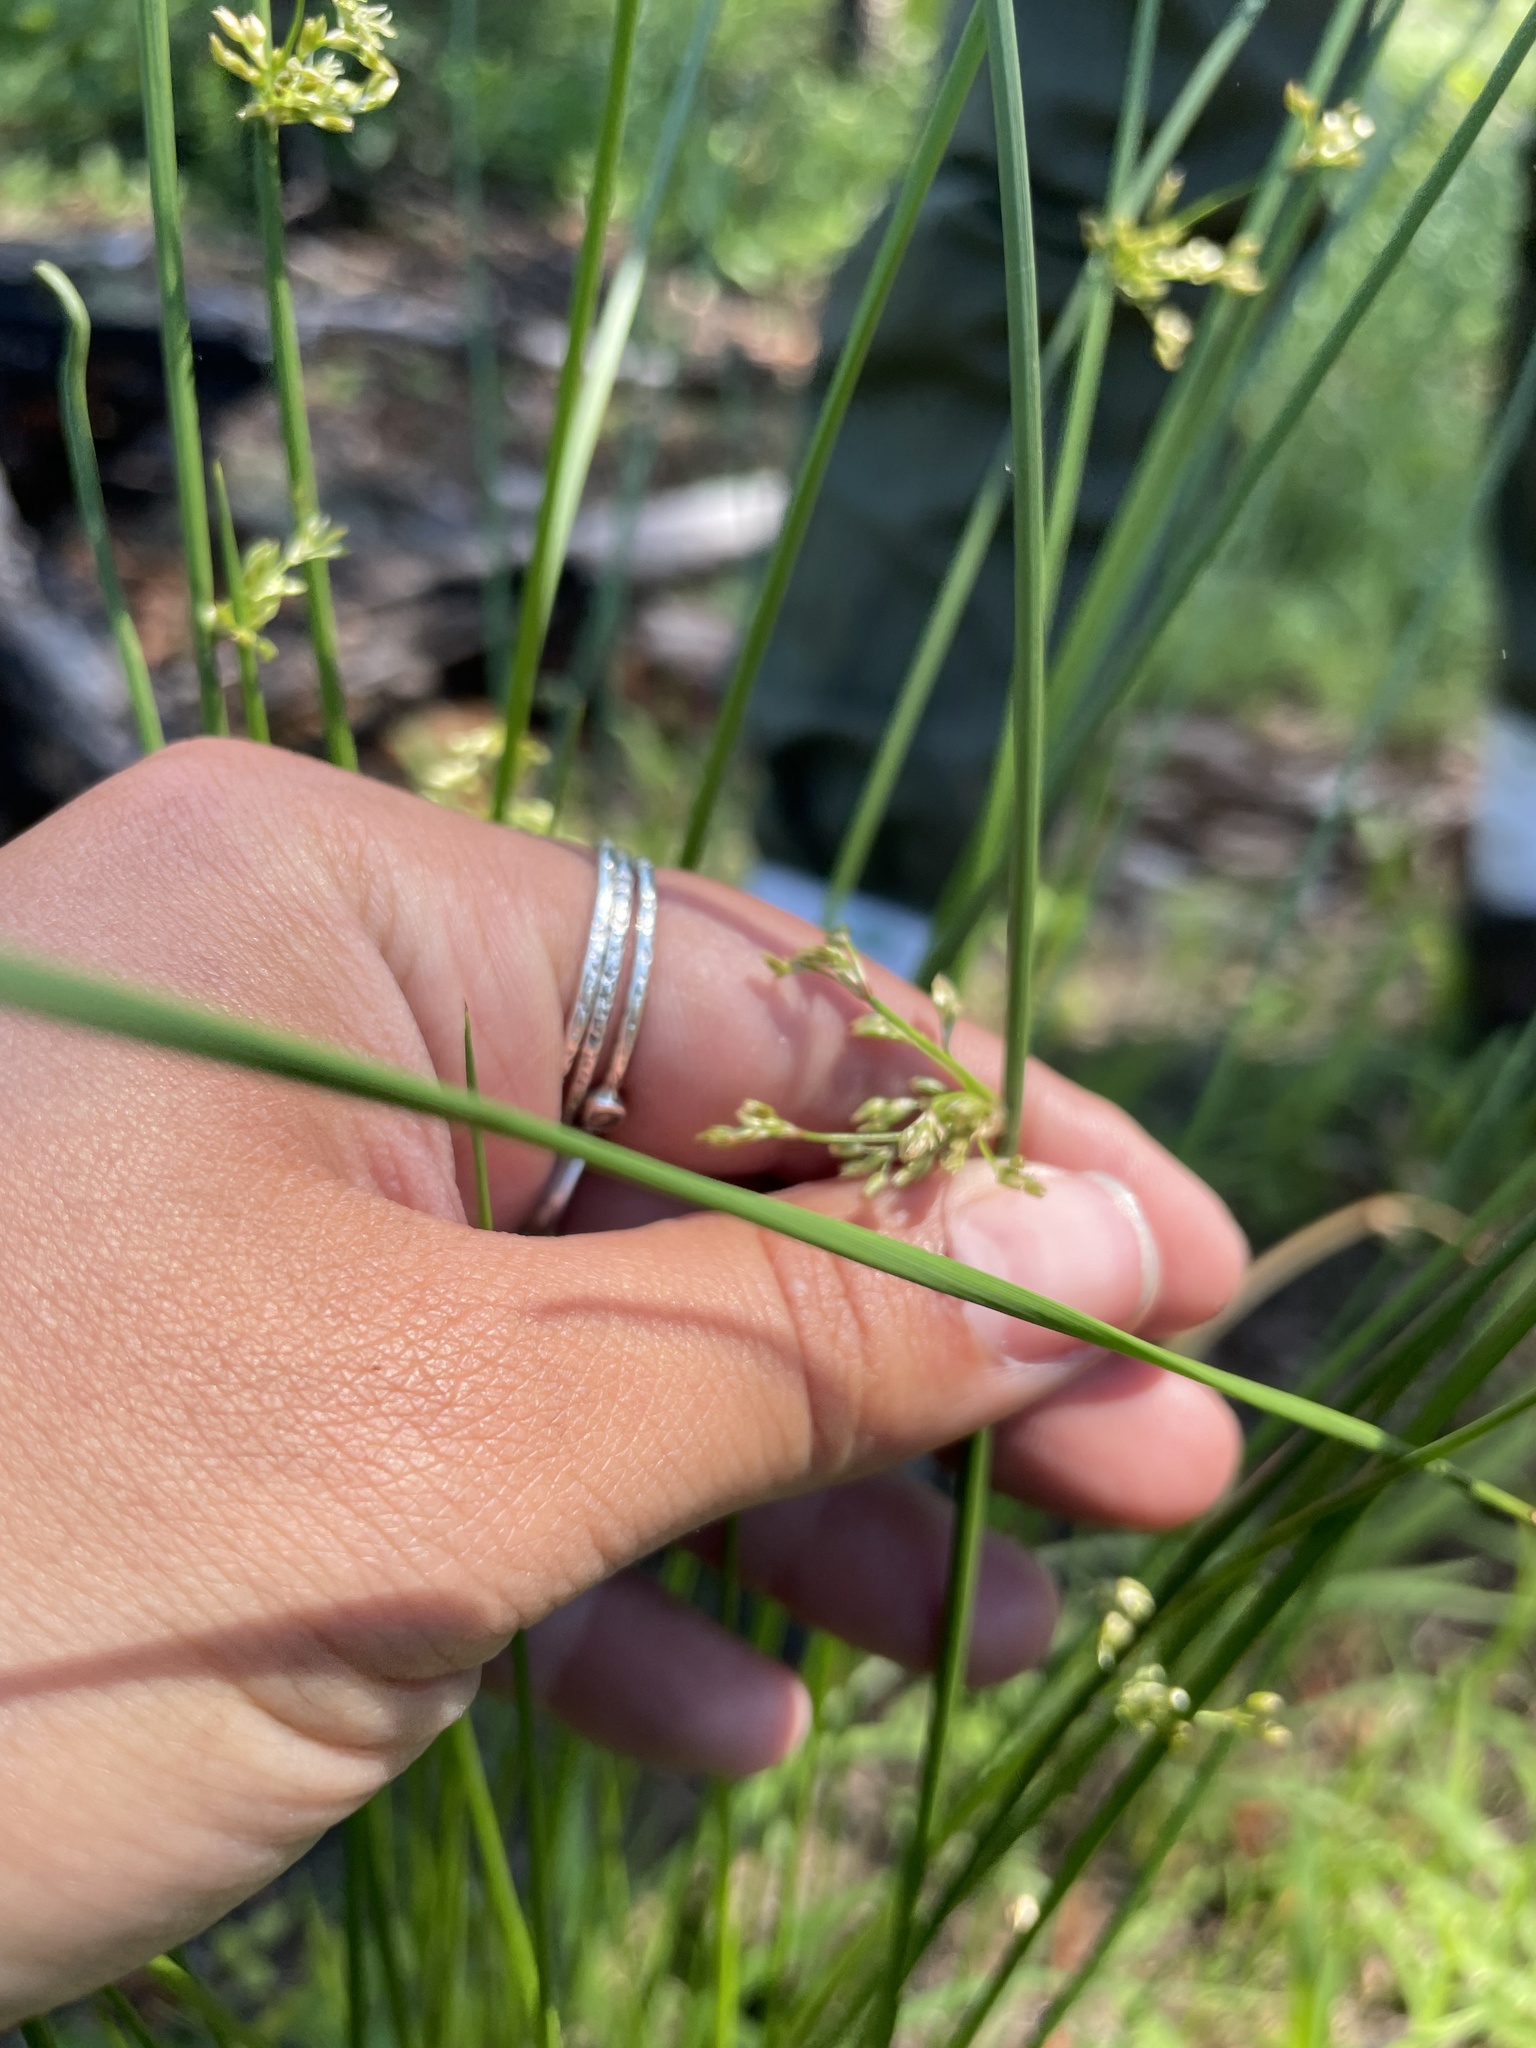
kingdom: Plantae
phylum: Tracheophyta
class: Liliopsida
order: Poales
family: Juncaceae
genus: Juncus
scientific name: Juncus effusus
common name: Soft rush
